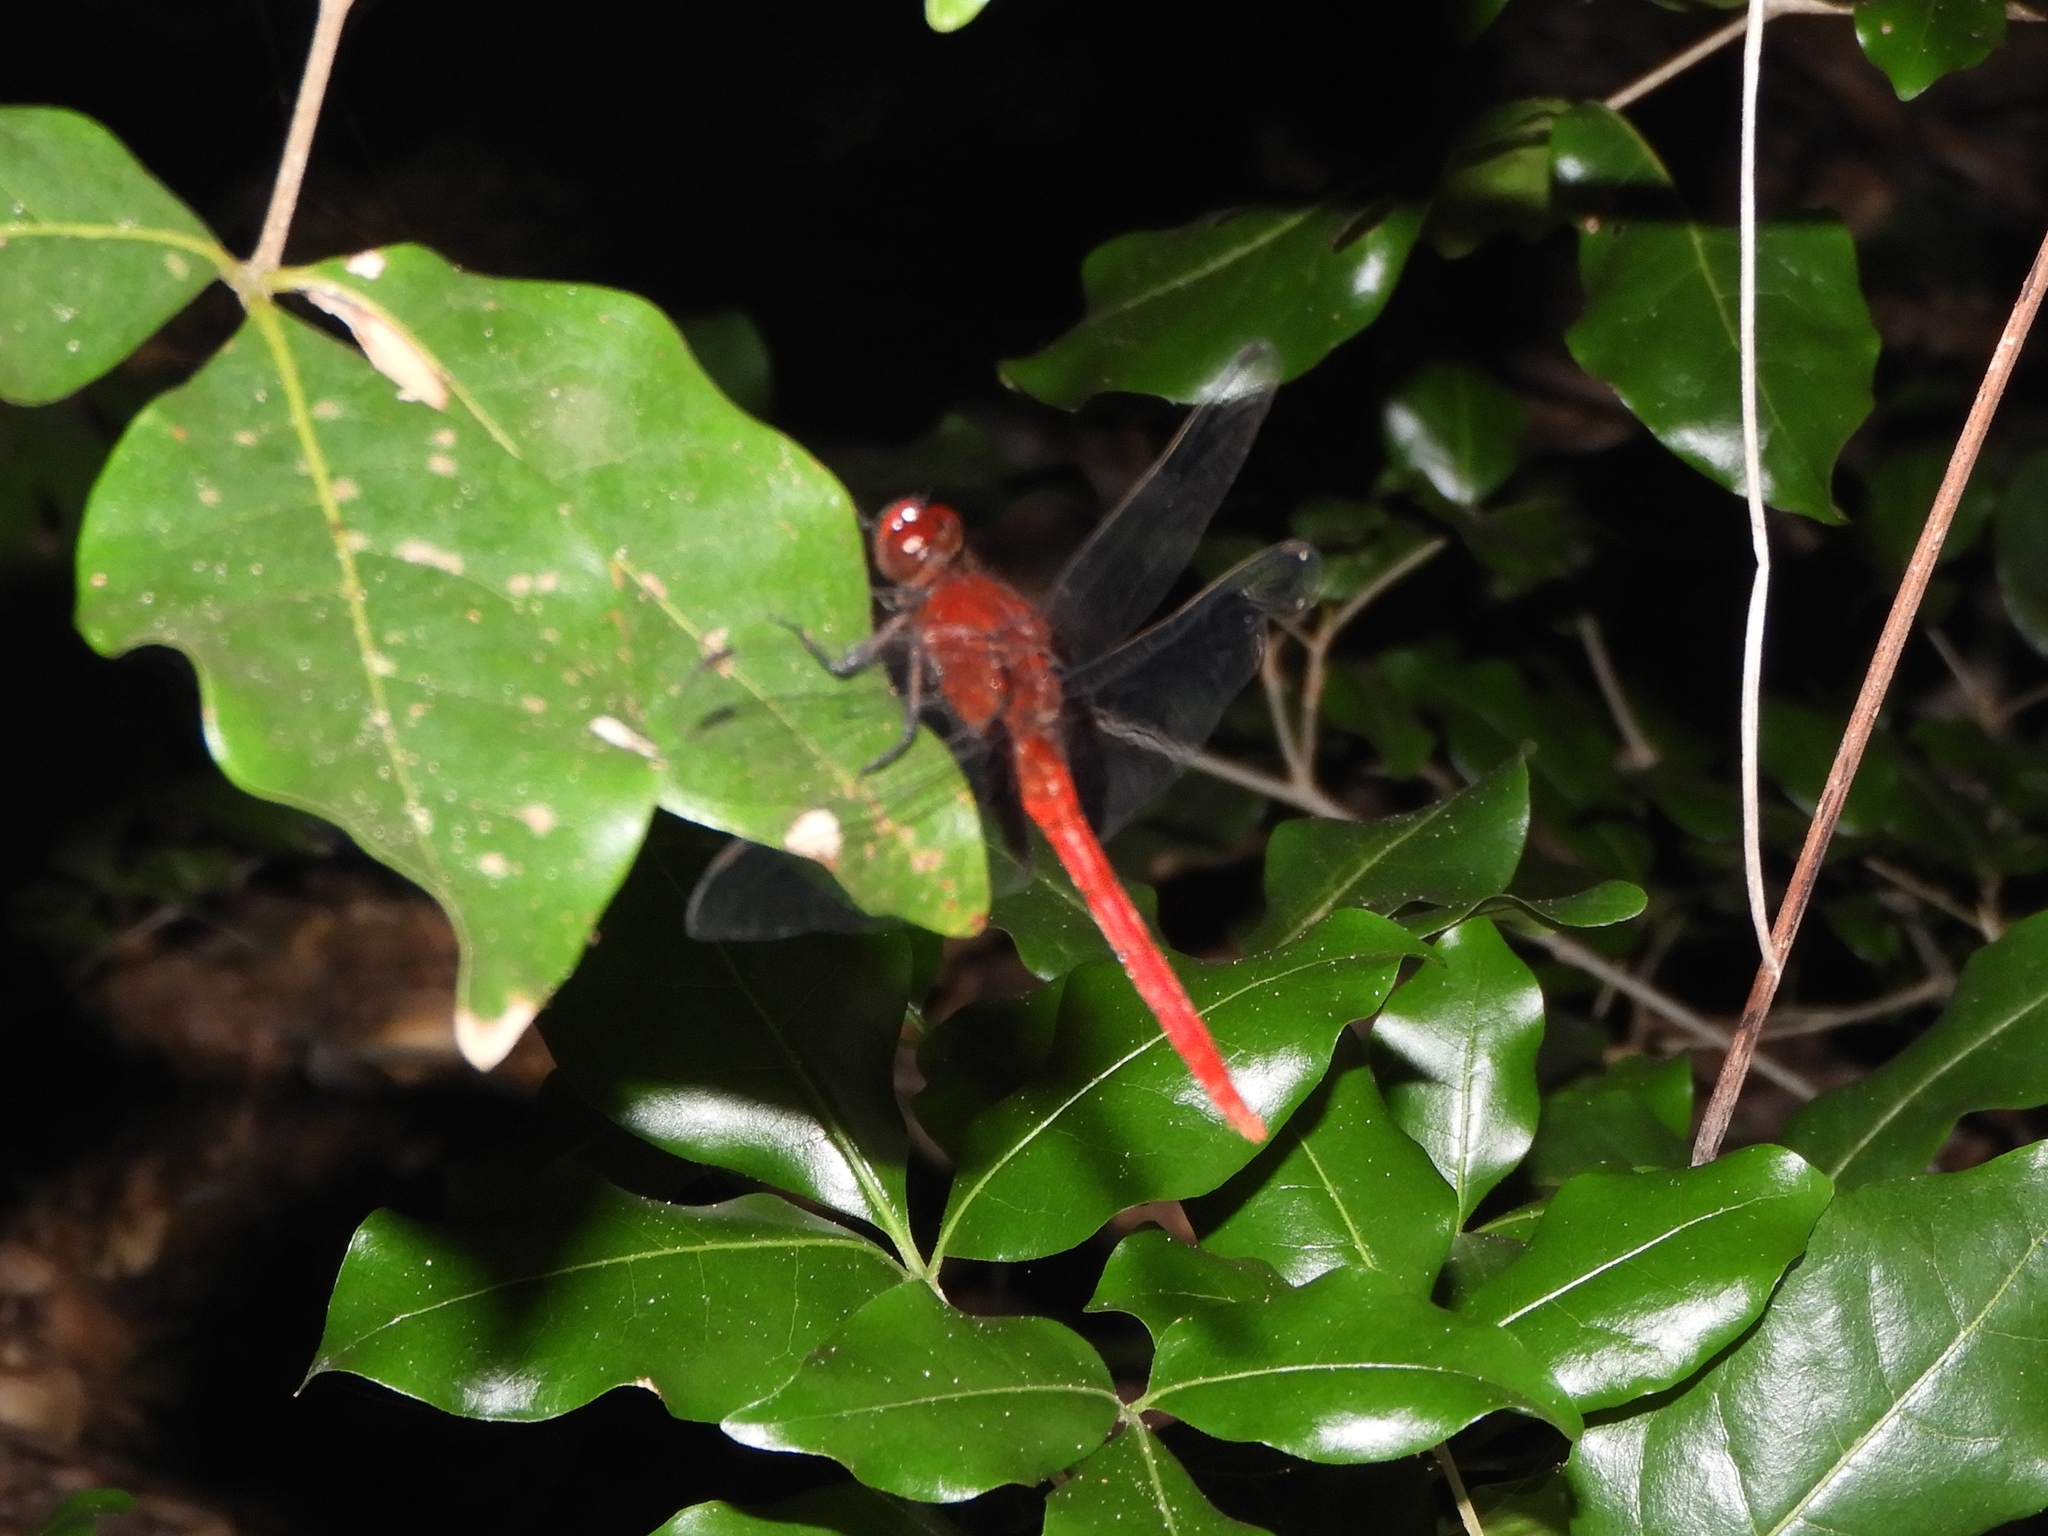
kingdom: Animalia
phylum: Arthropoda
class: Insecta
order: Odonata
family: Libellulidae
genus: Erythemis
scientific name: Erythemis mithroides
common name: Claret pondhawk
